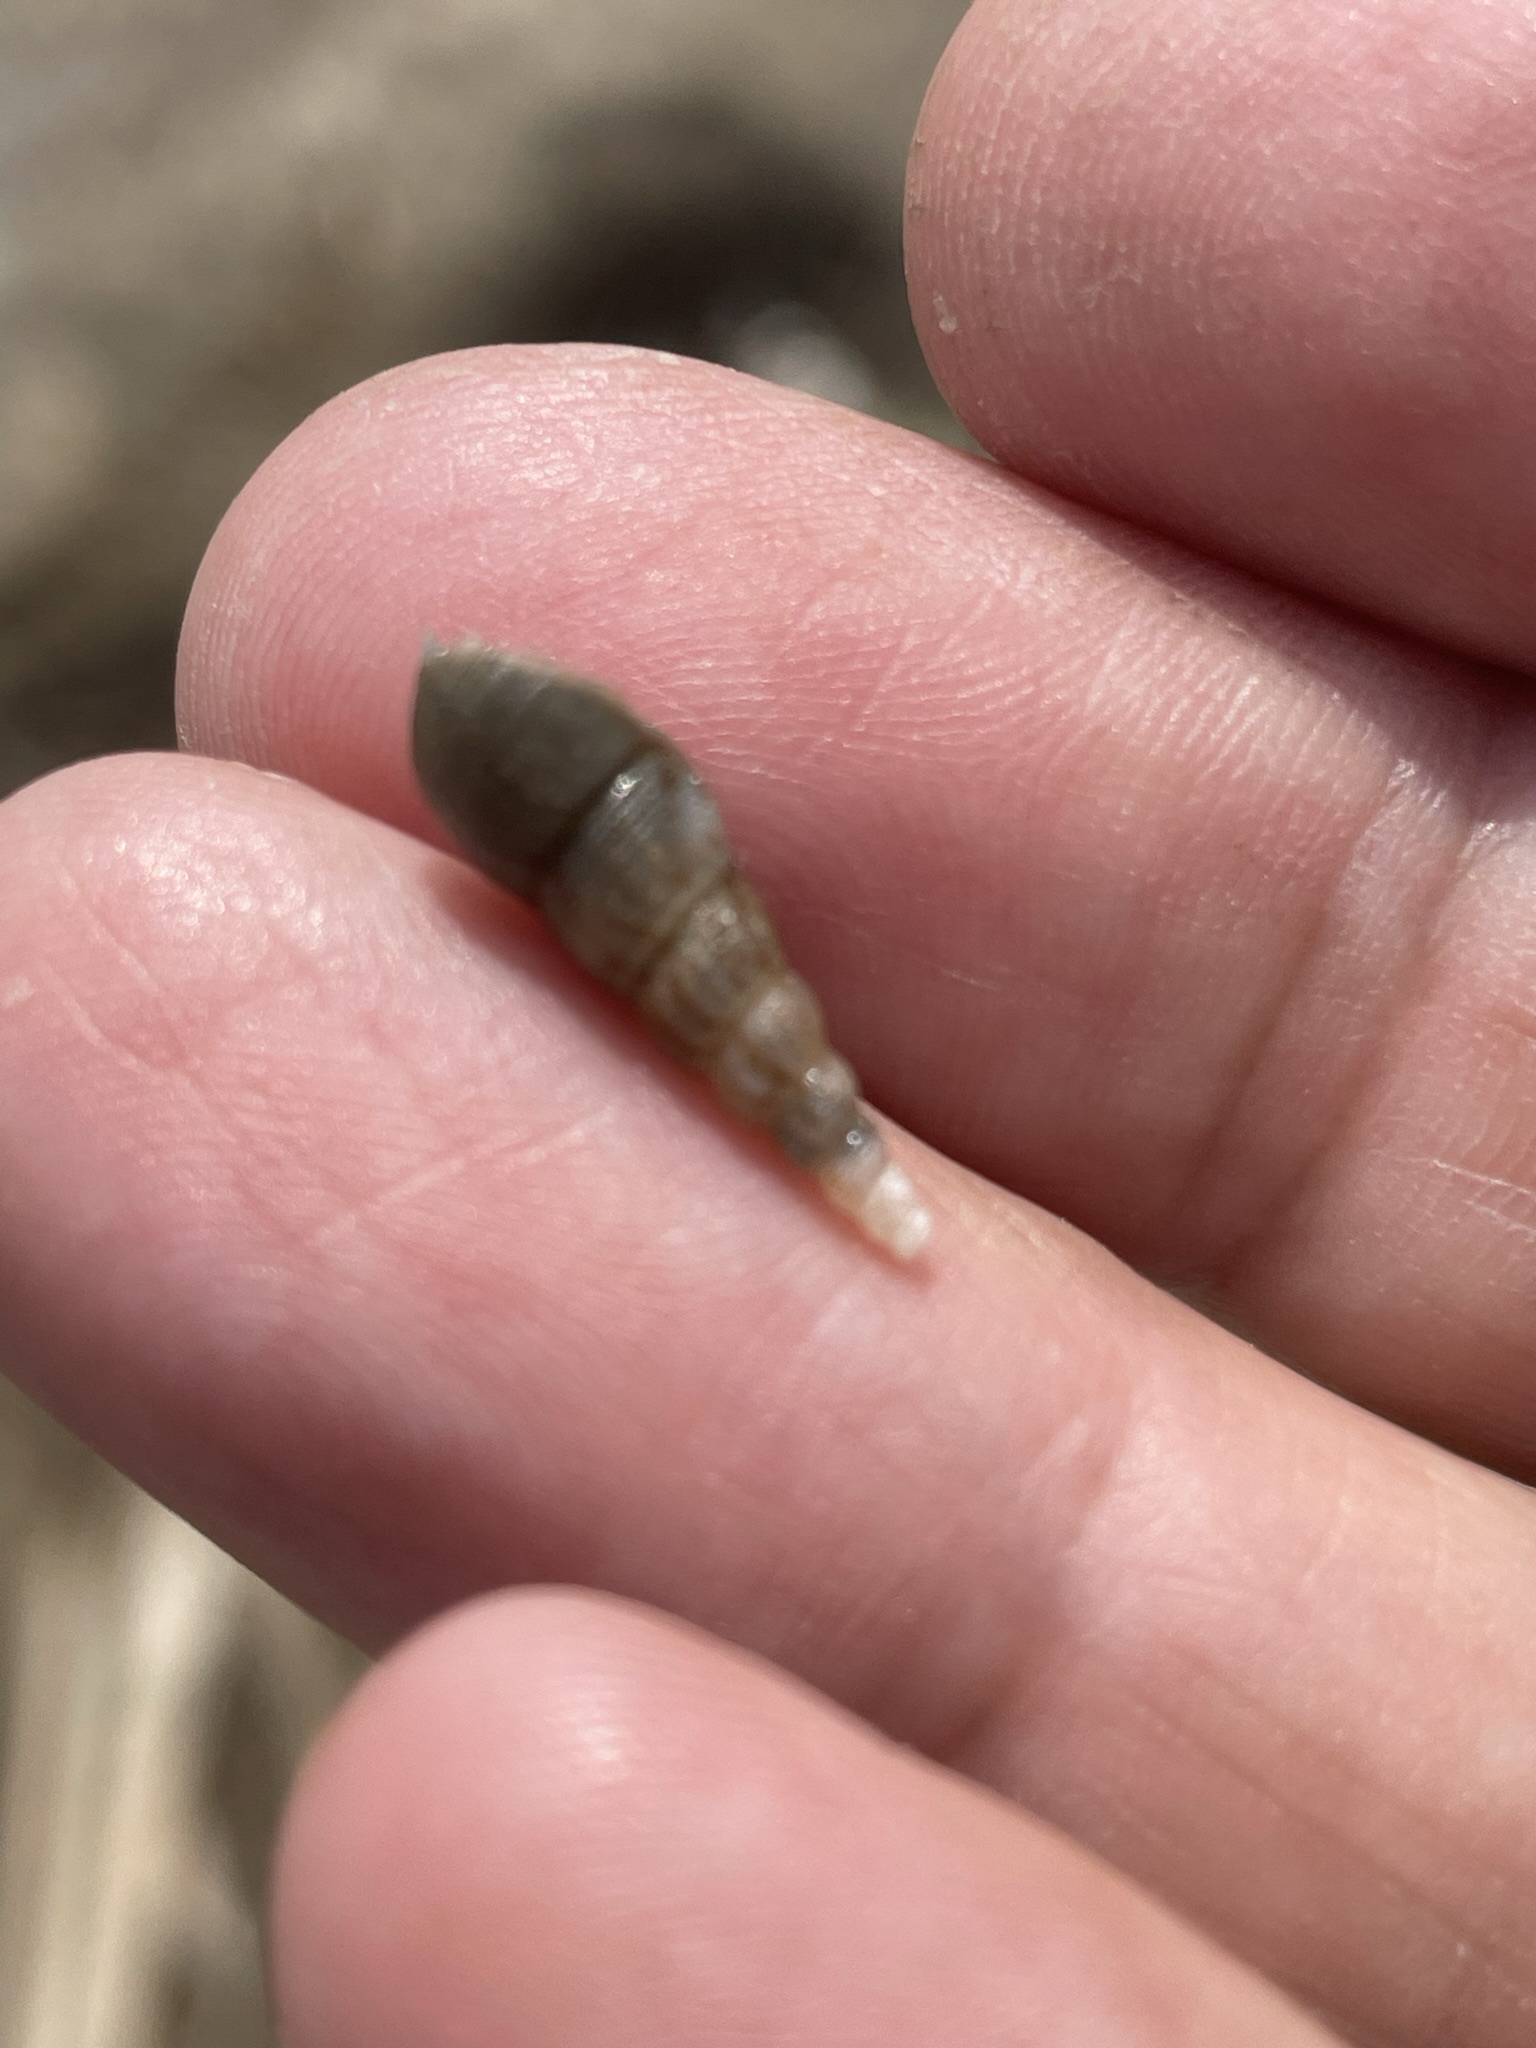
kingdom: Animalia
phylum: Mollusca
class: Gastropoda
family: Thiaridae
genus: Melanoides
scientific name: Melanoides tuberculata
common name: Red-rim melania
